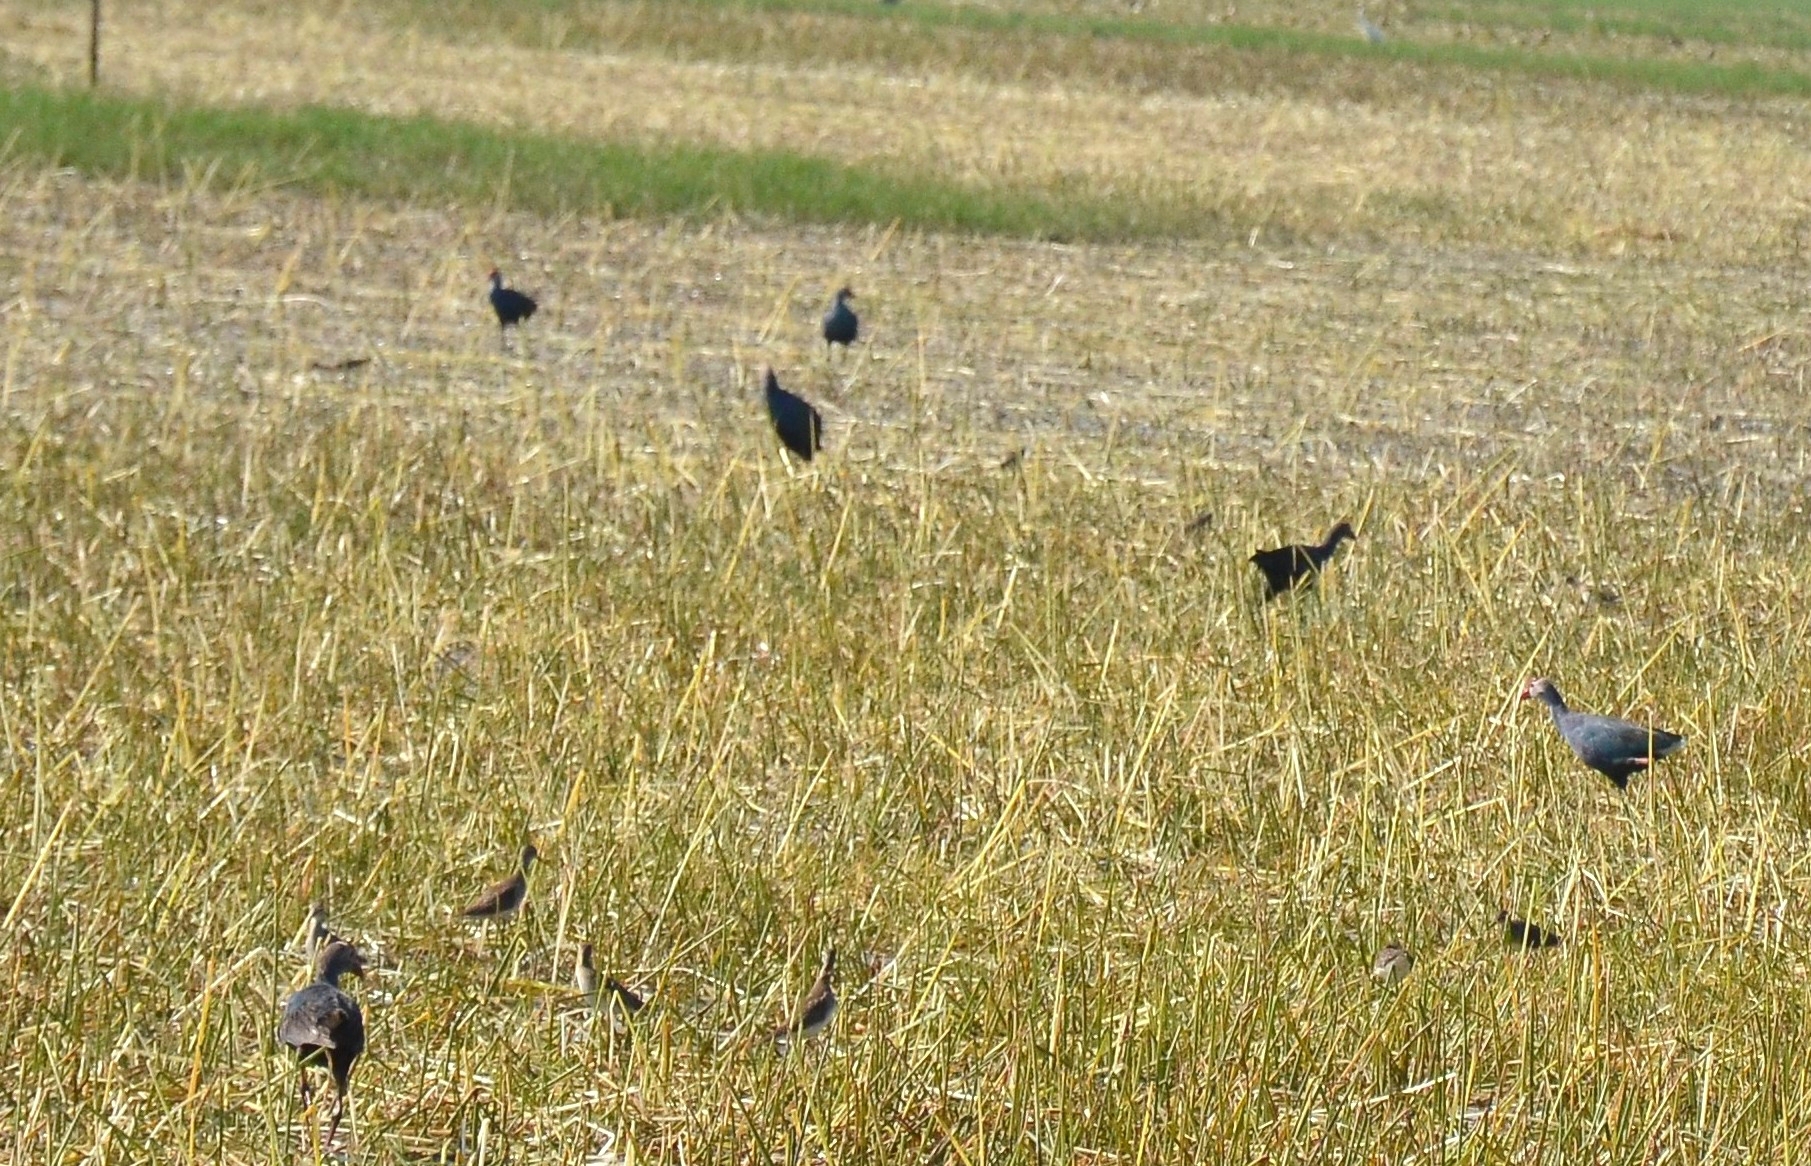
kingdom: Animalia
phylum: Chordata
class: Aves
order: Gruiformes
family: Rallidae
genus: Porphyrio
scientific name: Porphyrio porphyrio
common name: Purple swamphen
